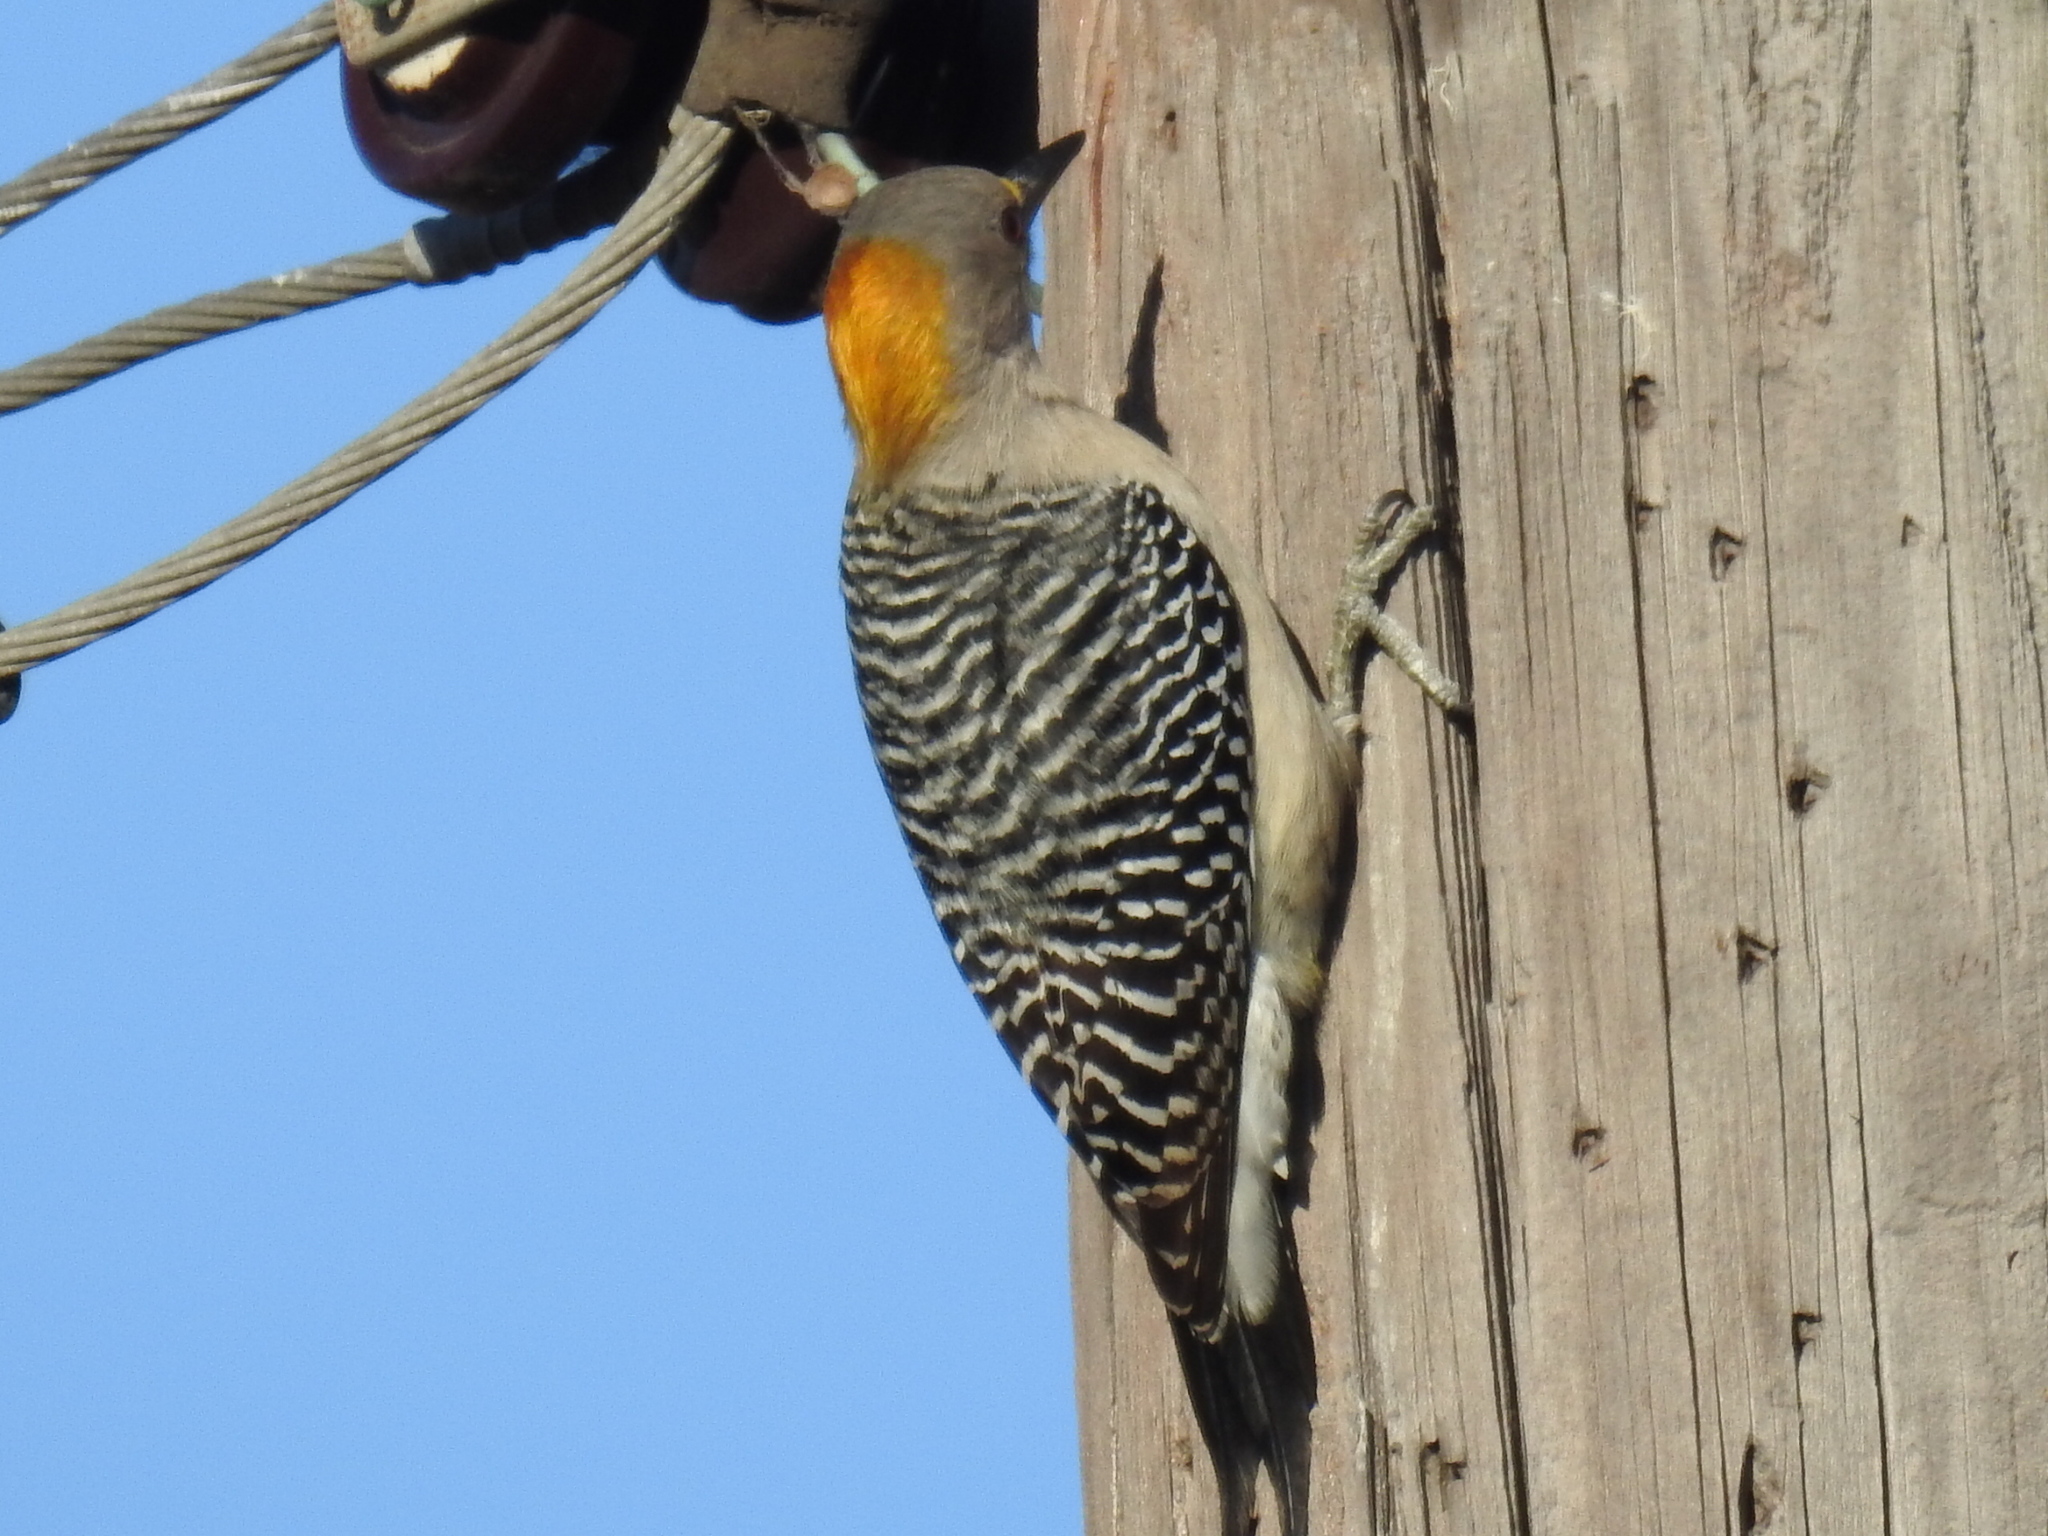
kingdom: Animalia
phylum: Chordata
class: Aves
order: Piciformes
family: Picidae
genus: Melanerpes
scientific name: Melanerpes aurifrons
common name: Golden-fronted woodpecker
